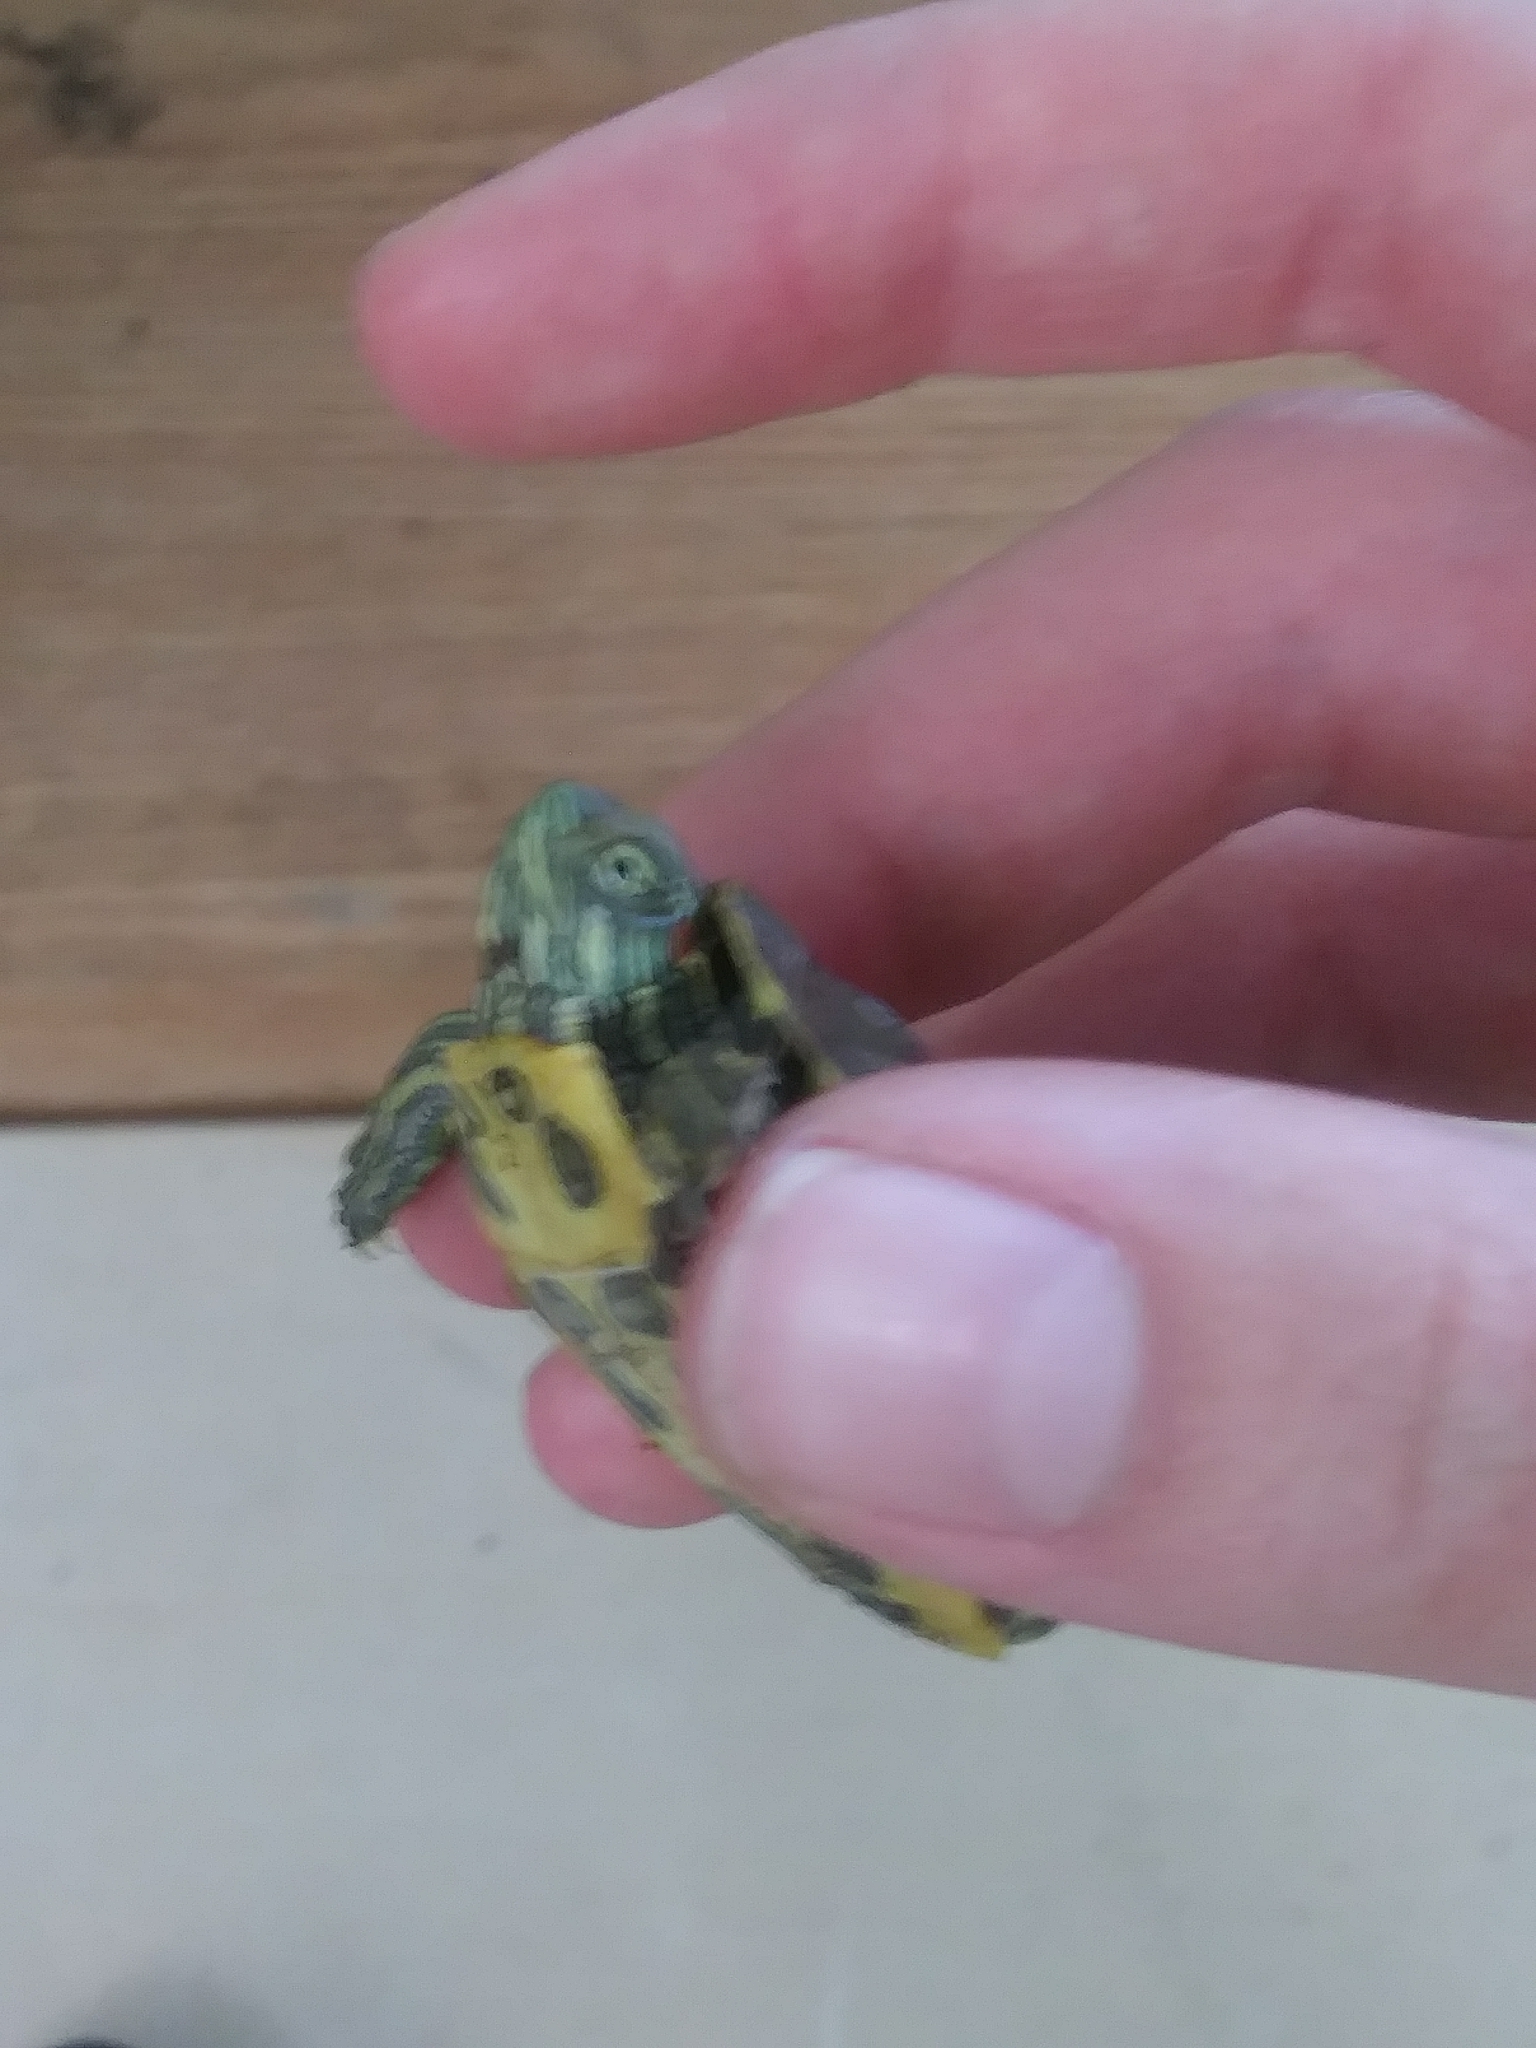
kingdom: Animalia
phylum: Chordata
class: Testudines
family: Emydidae
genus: Trachemys
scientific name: Trachemys scripta
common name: Slider
